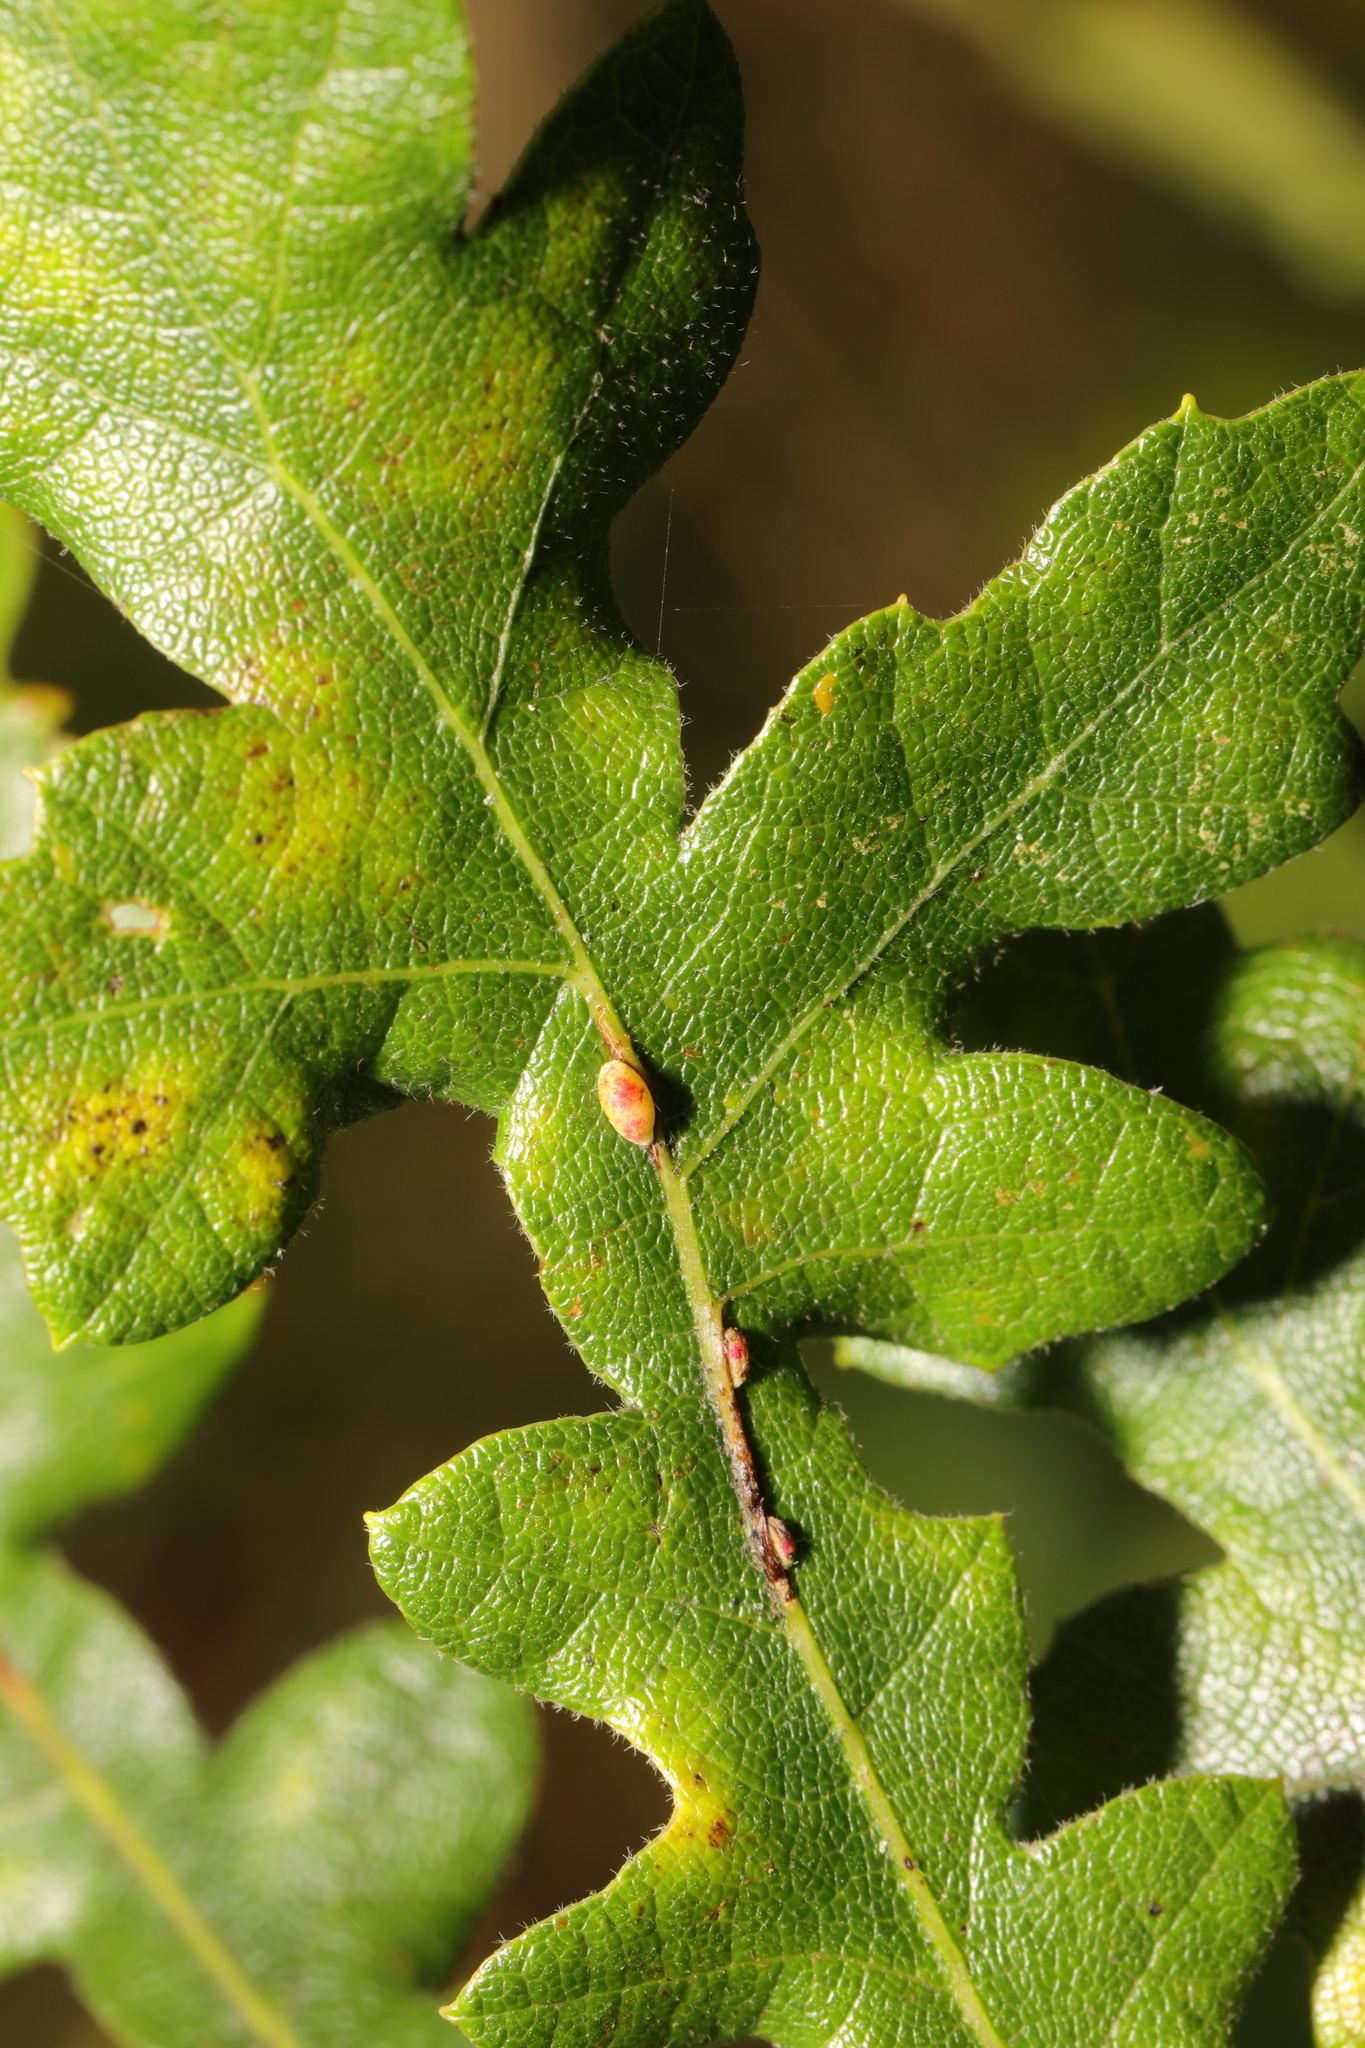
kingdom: Animalia
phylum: Arthropoda
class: Insecta
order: Hymenoptera
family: Cynipidae
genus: Neuroterus
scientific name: Neuroterus saliens
